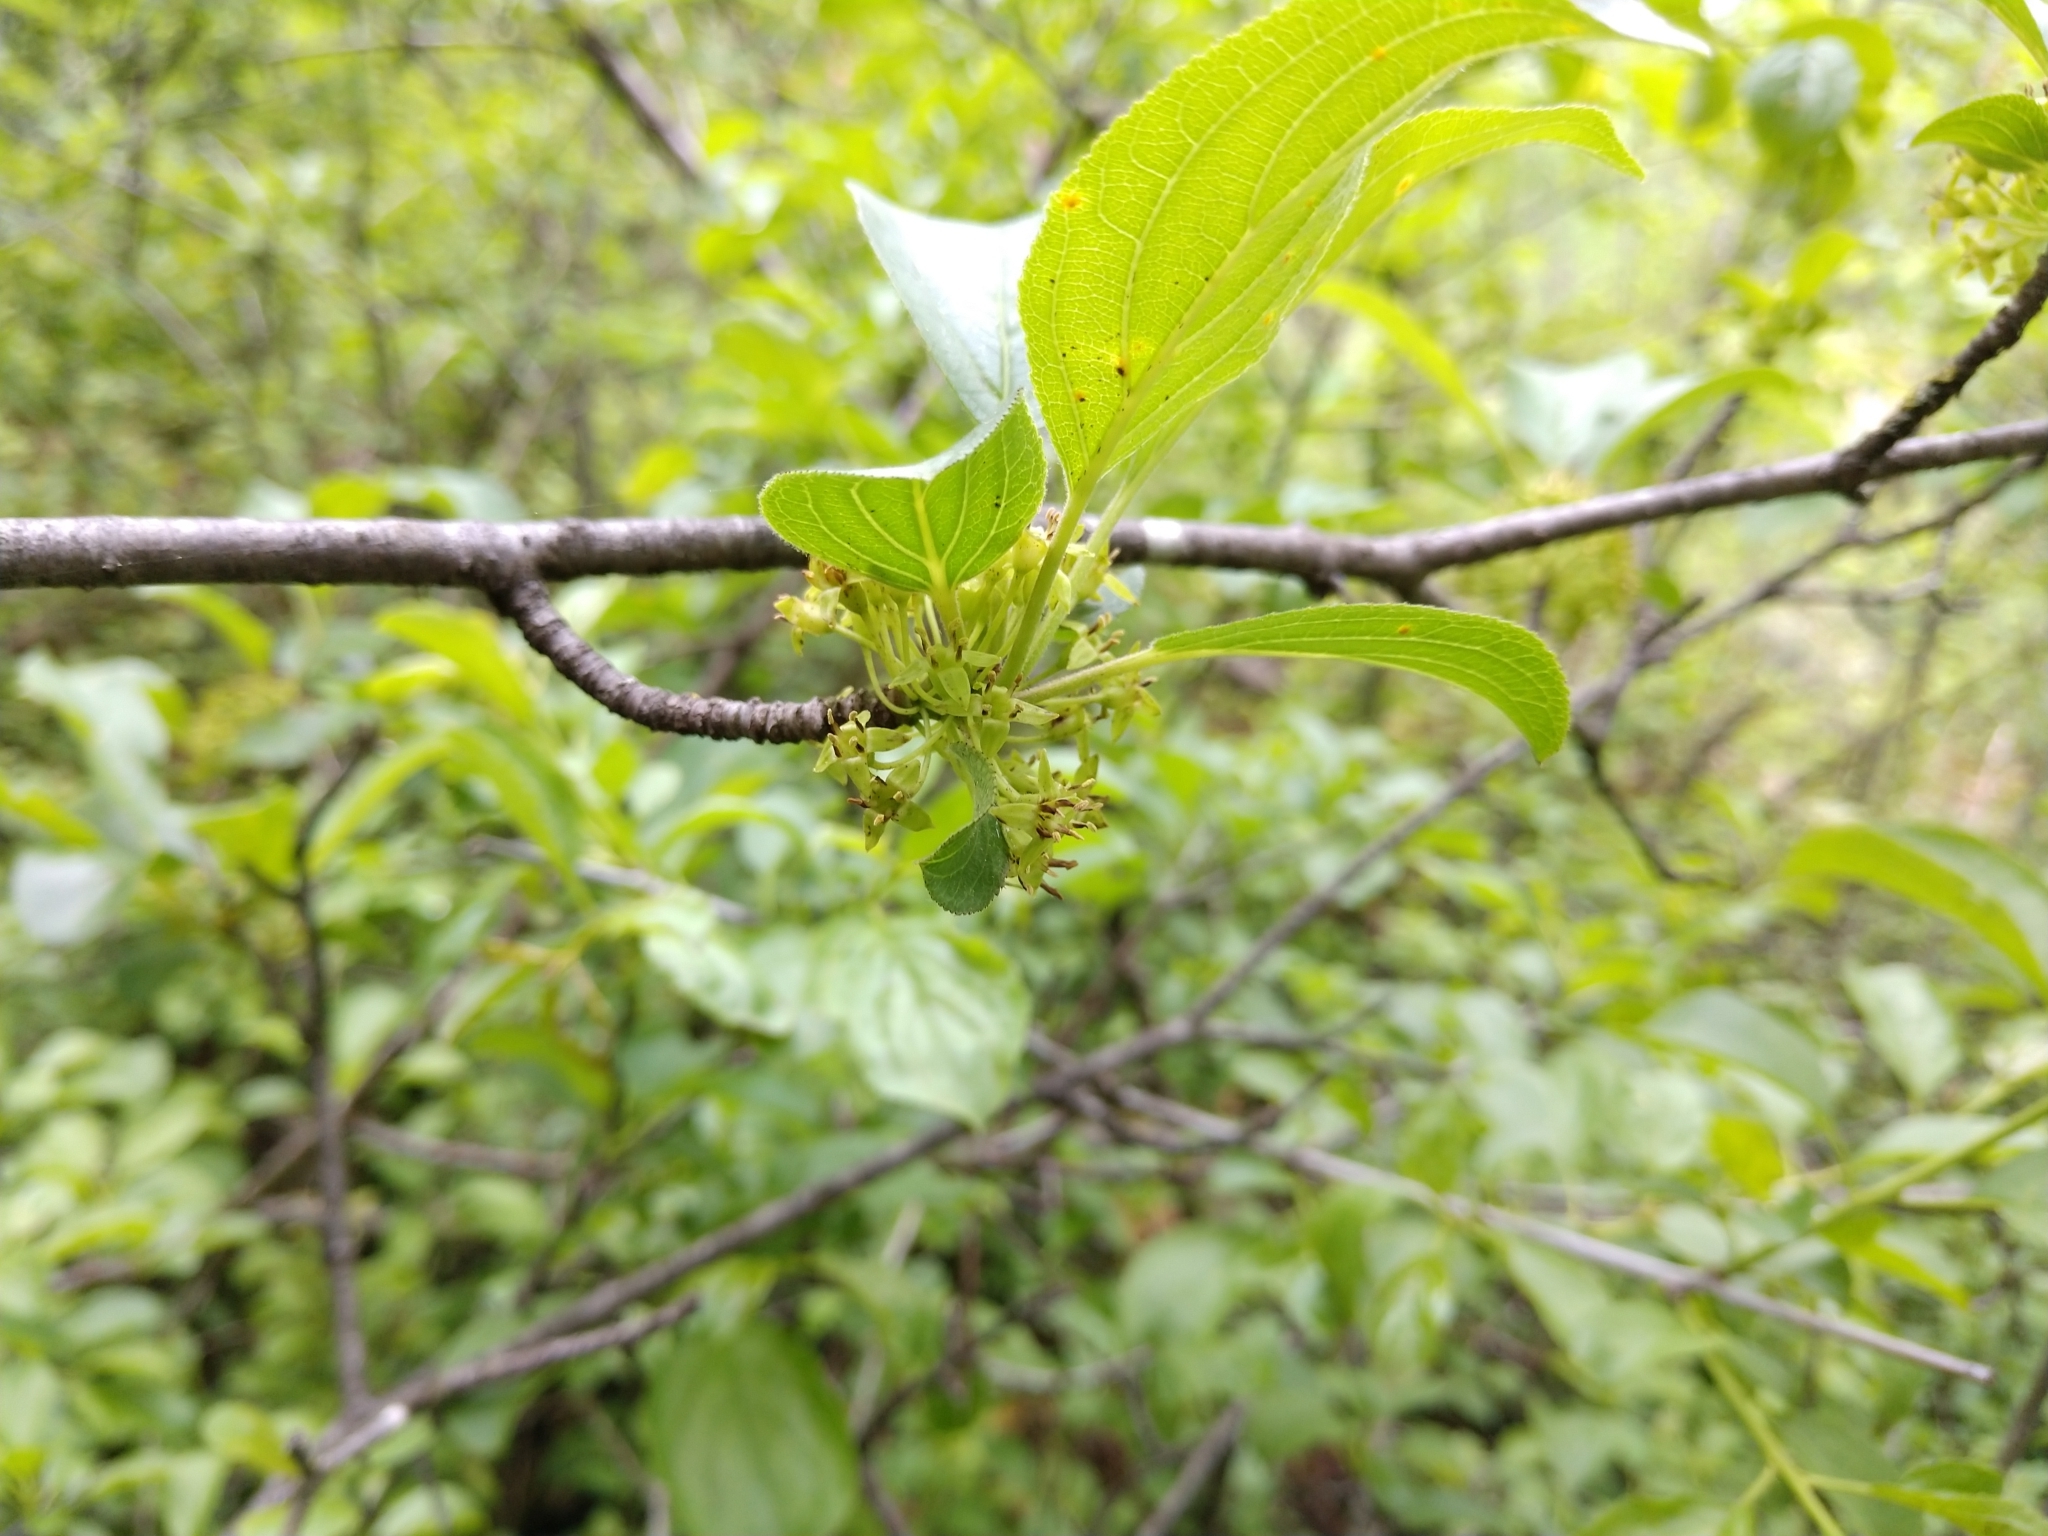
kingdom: Plantae
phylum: Tracheophyta
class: Magnoliopsida
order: Rosales
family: Rhamnaceae
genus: Rhamnus
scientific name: Rhamnus cathartica
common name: Common buckthorn
